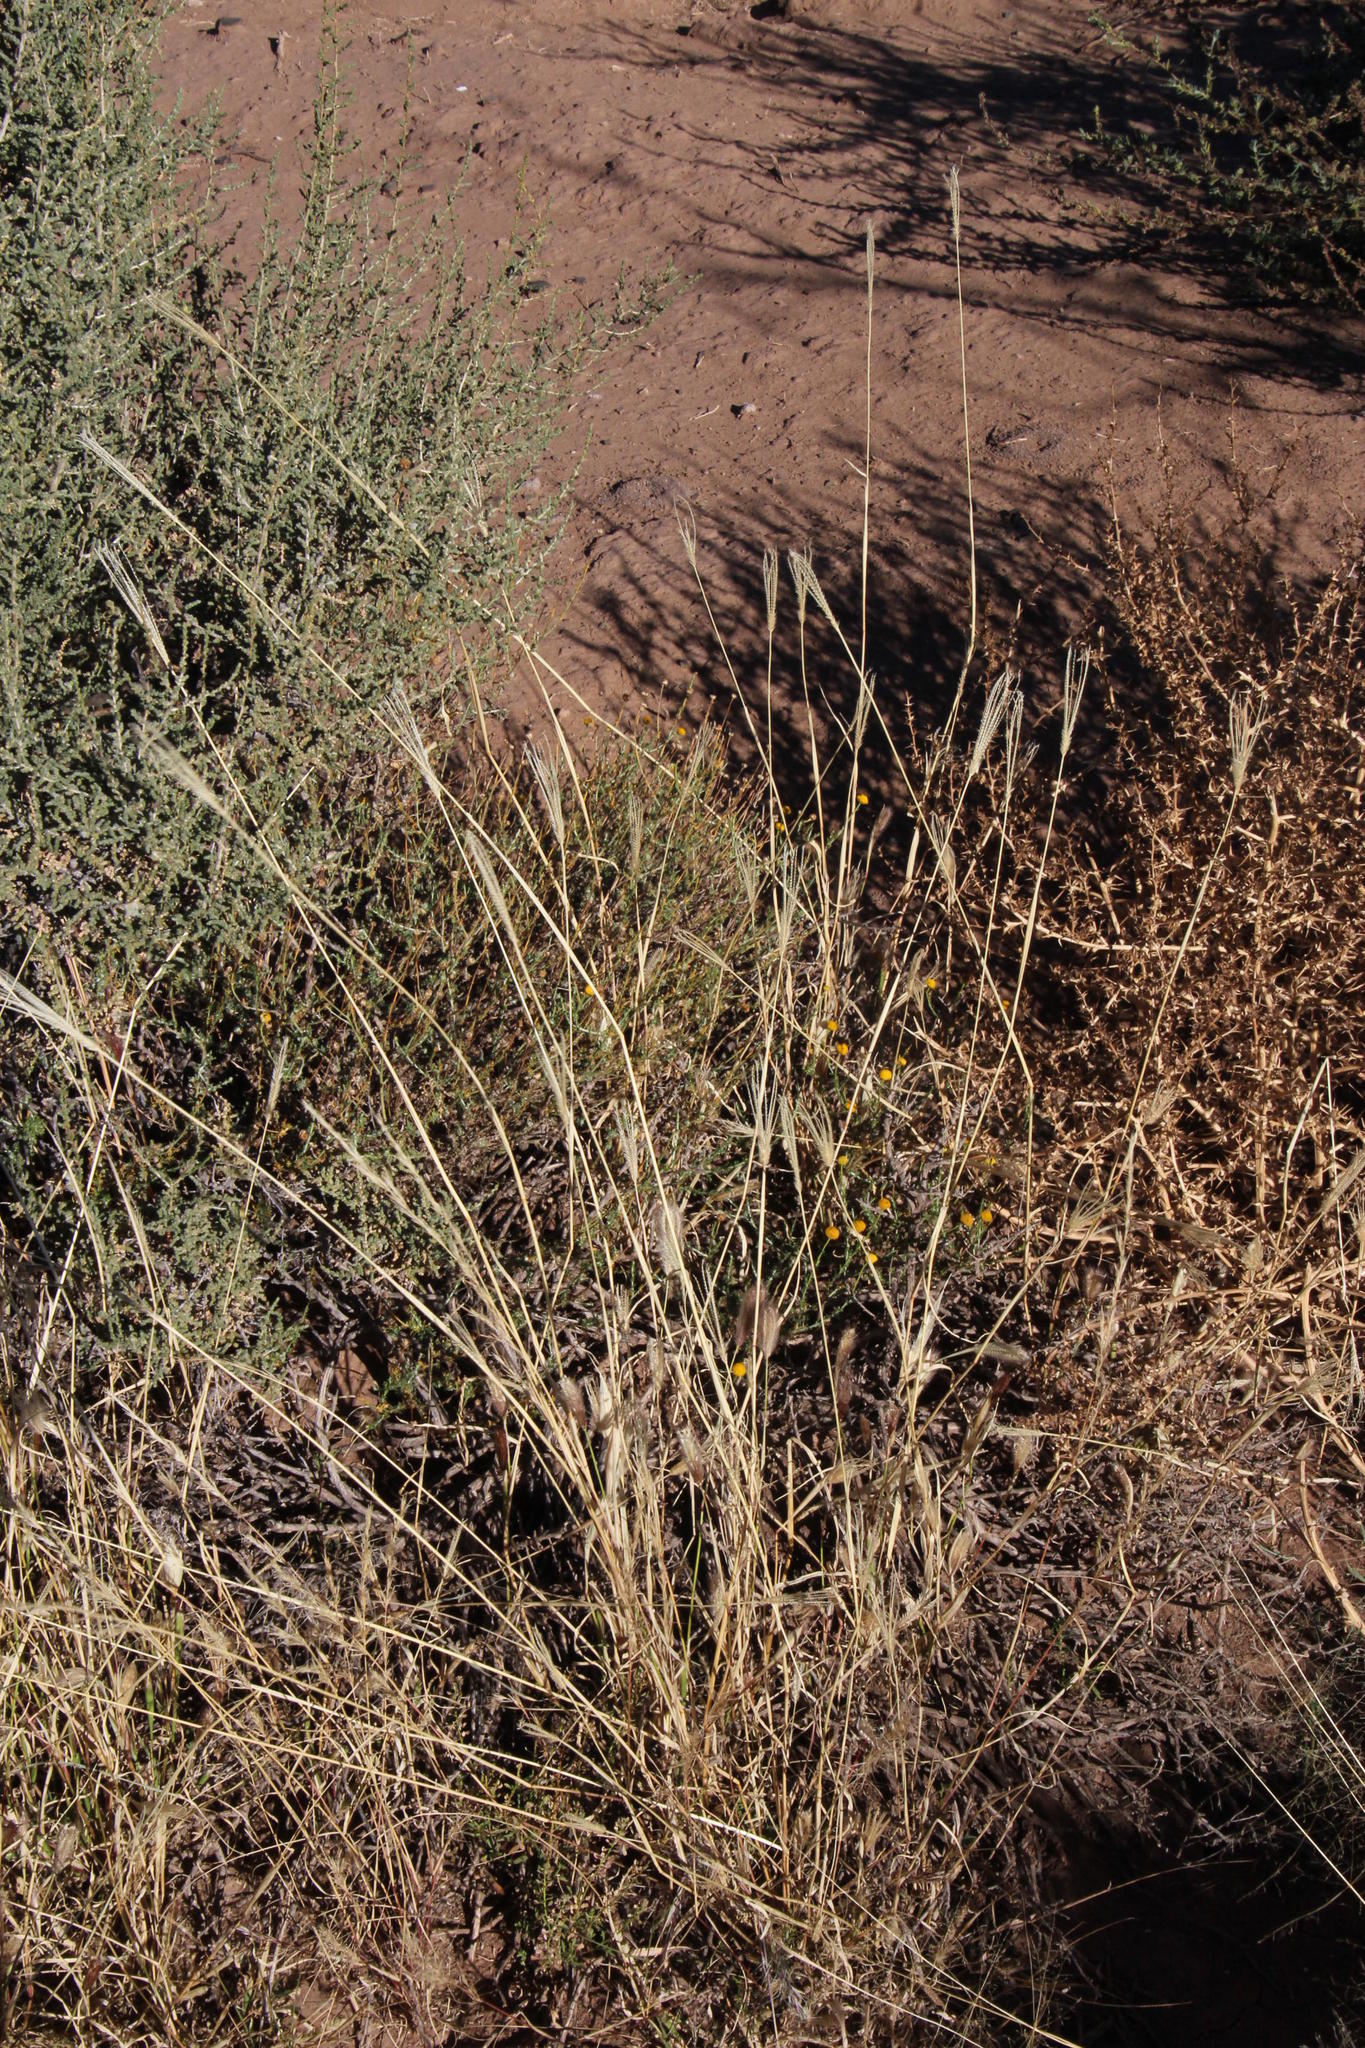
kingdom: Plantae
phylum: Tracheophyta
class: Liliopsida
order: Poales
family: Poaceae
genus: Chloris
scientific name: Chloris virgata
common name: Feathery rhodes-grass
